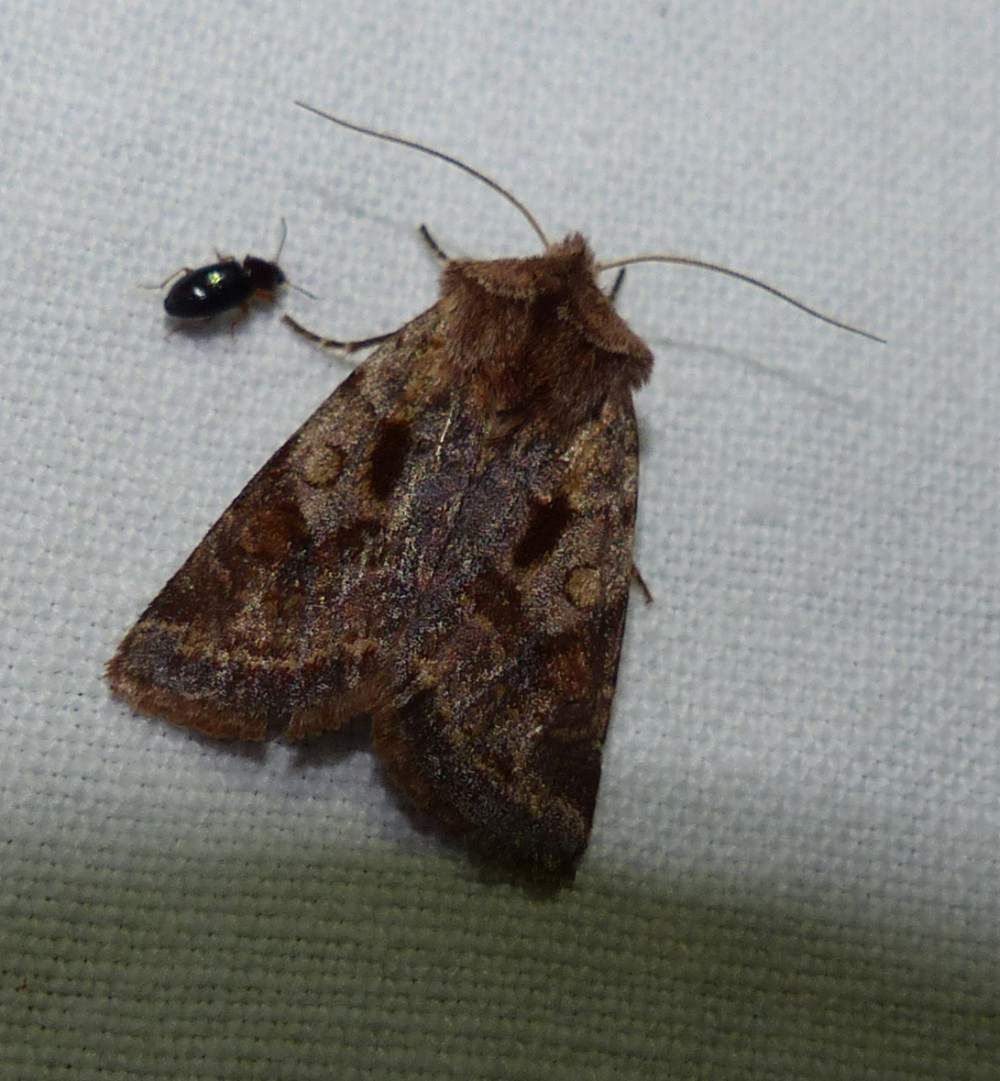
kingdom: Animalia
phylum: Arthropoda
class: Insecta
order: Lepidoptera
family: Noctuidae
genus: Cerastis
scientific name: Cerastis salicarum
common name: Willow dart
